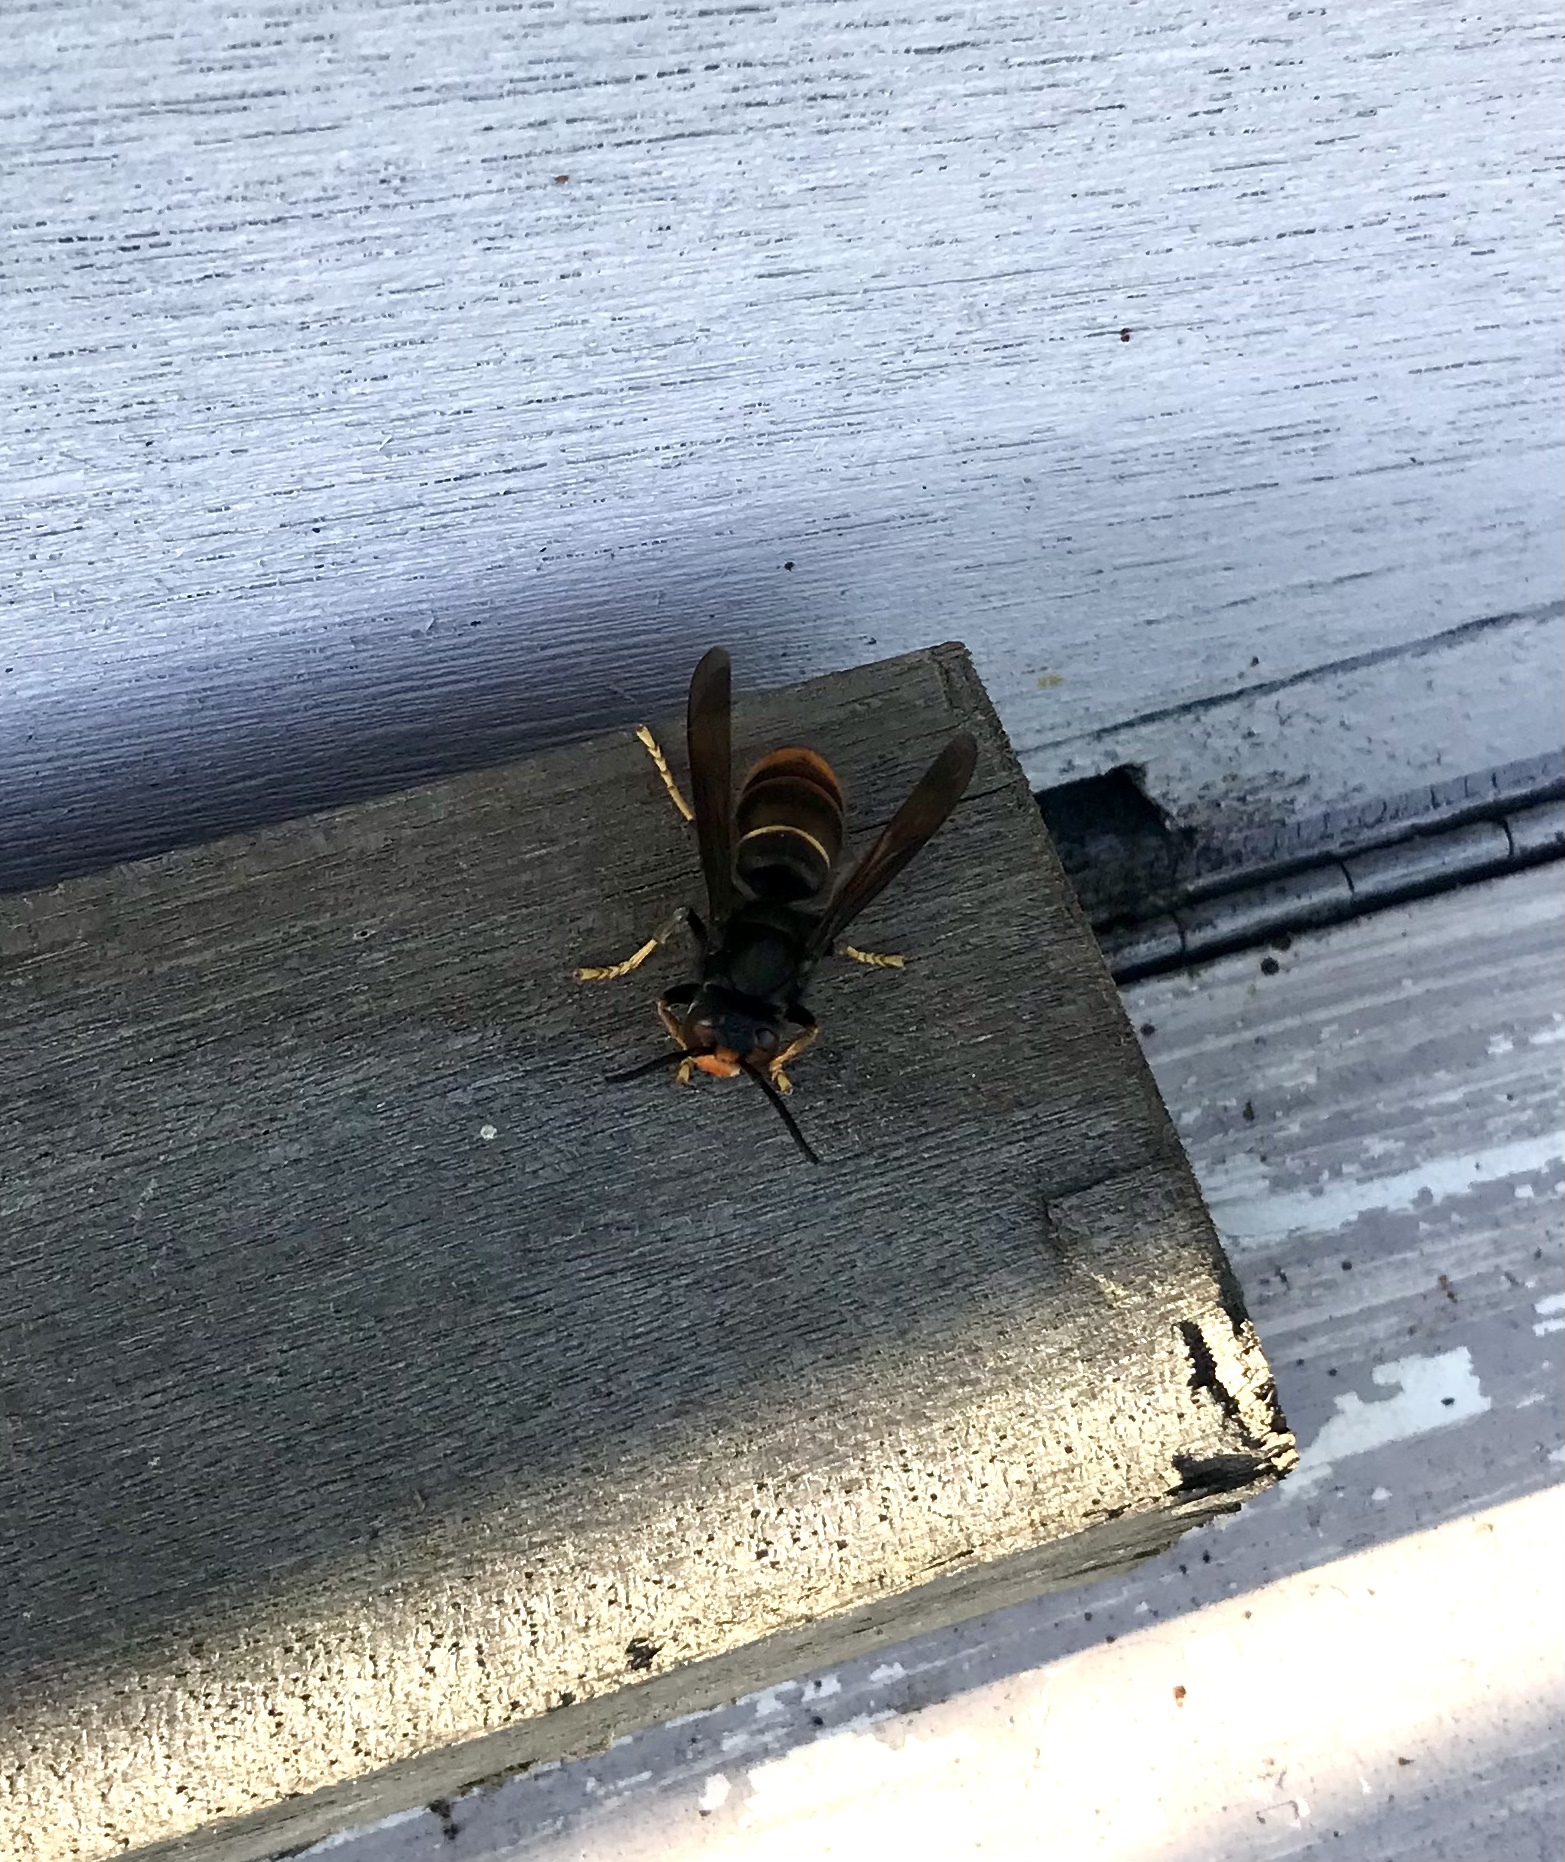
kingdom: Animalia
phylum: Arthropoda
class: Insecta
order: Hymenoptera
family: Vespidae
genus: Vespa
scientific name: Vespa velutina
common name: Asian hornet
